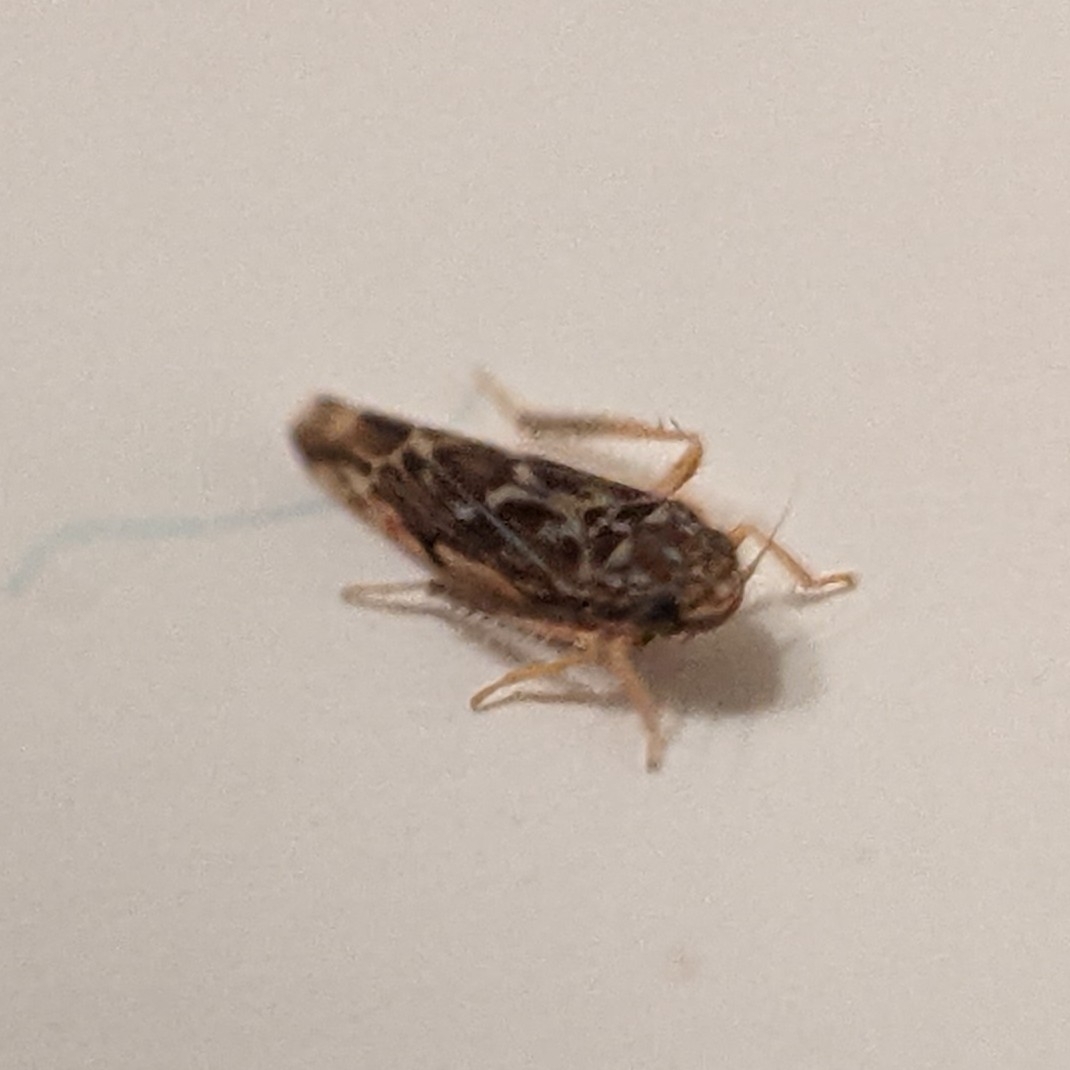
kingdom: Animalia
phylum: Arthropoda
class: Insecta
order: Hemiptera
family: Cicadellidae
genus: Erasmoneura
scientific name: Erasmoneura vulnerata
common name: The wounded leafhopper
